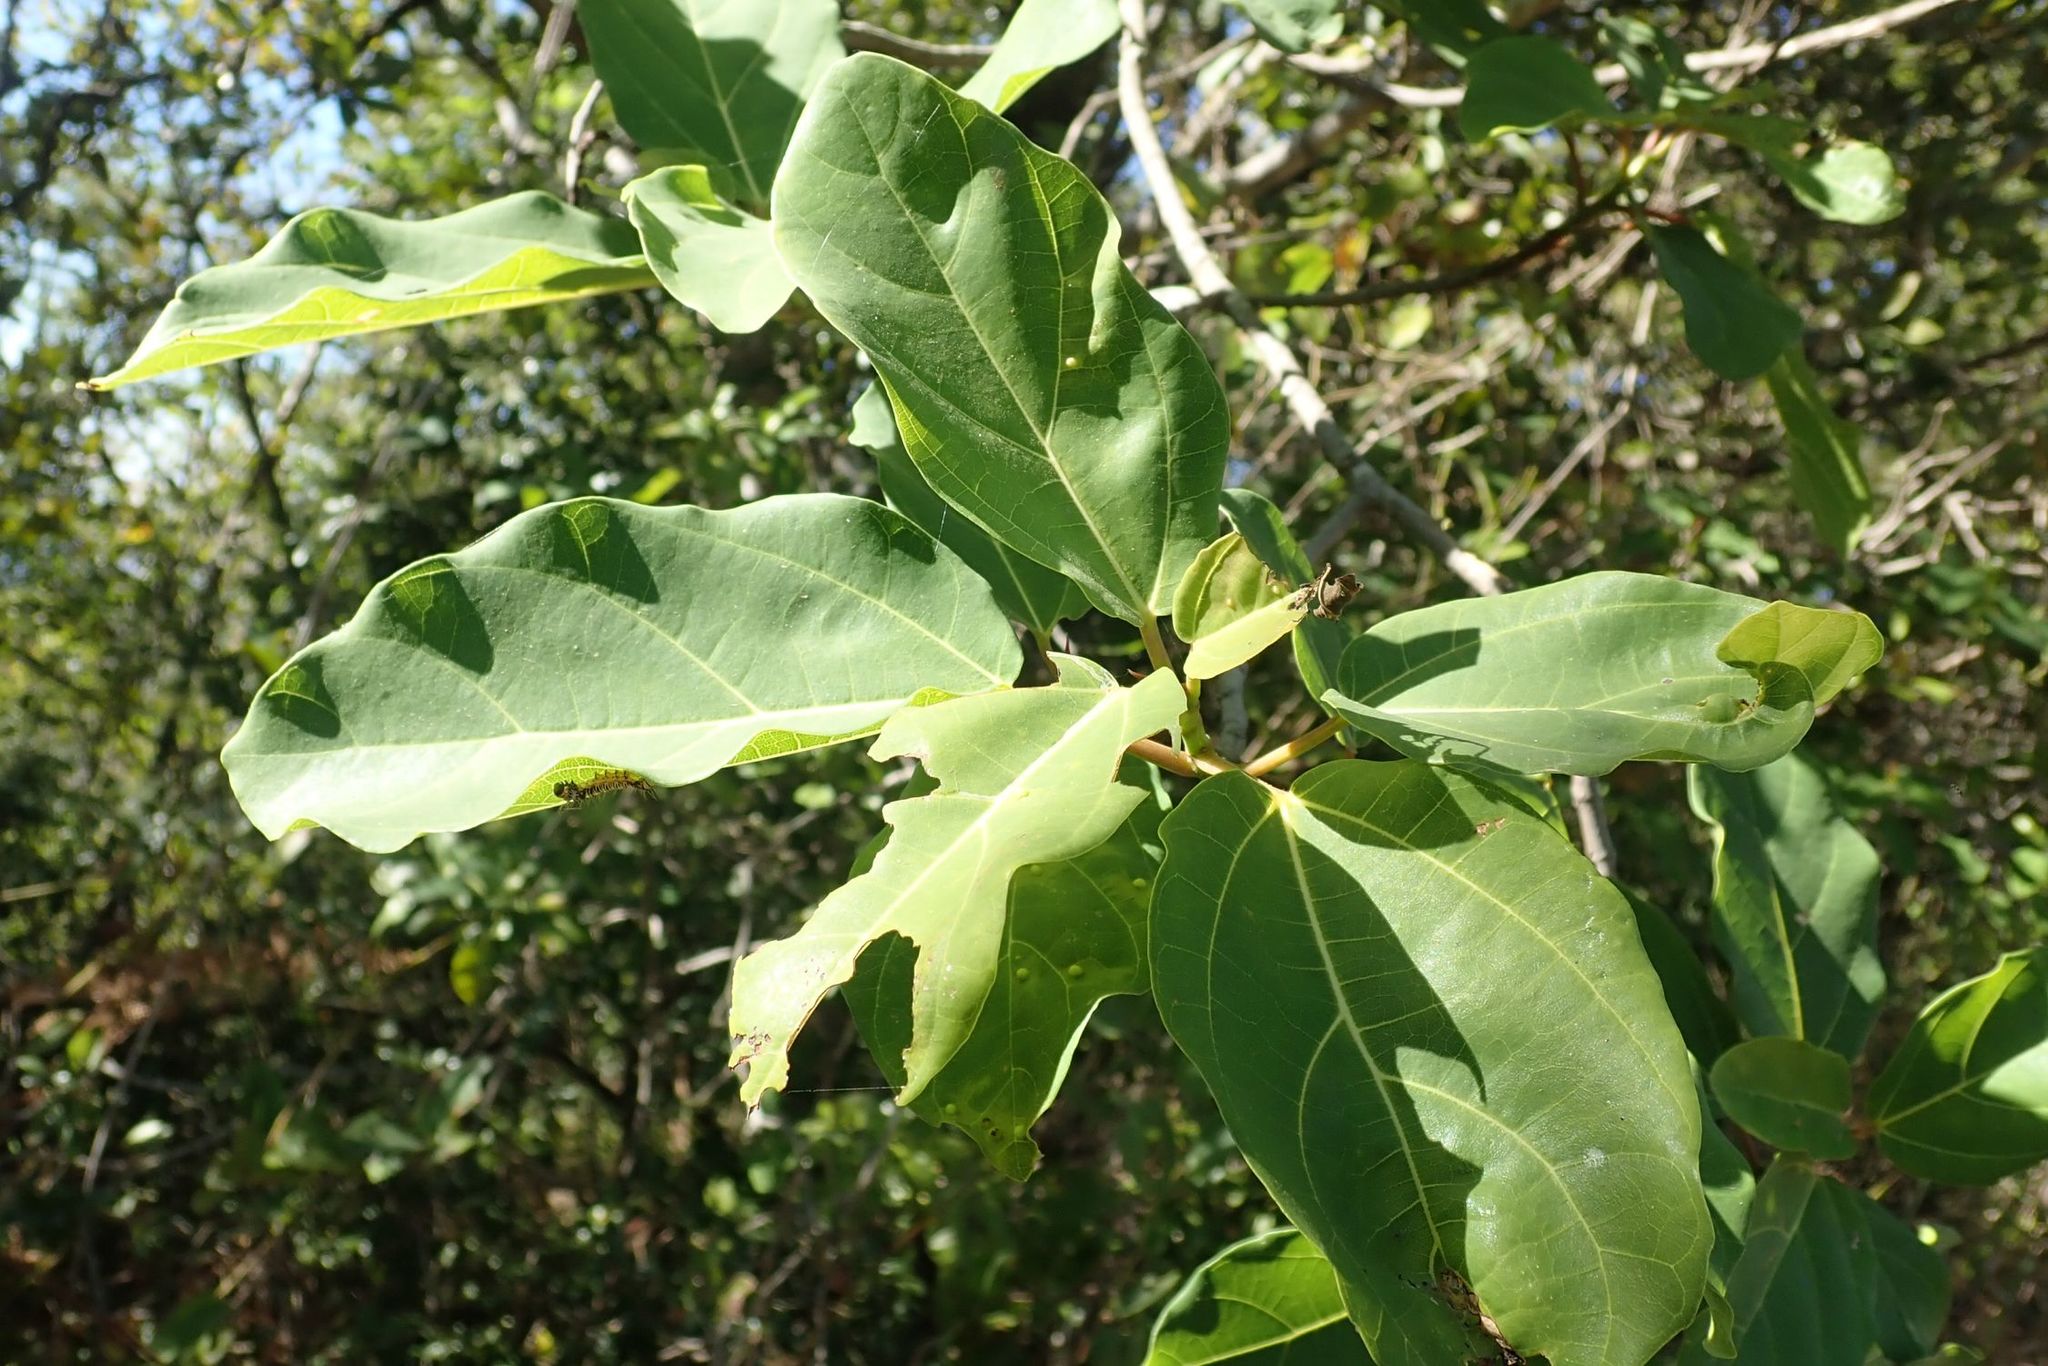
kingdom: Plantae
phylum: Tracheophyta
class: Magnoliopsida
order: Rosales
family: Moraceae
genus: Ficus
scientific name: Ficus sur
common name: Cape fig
